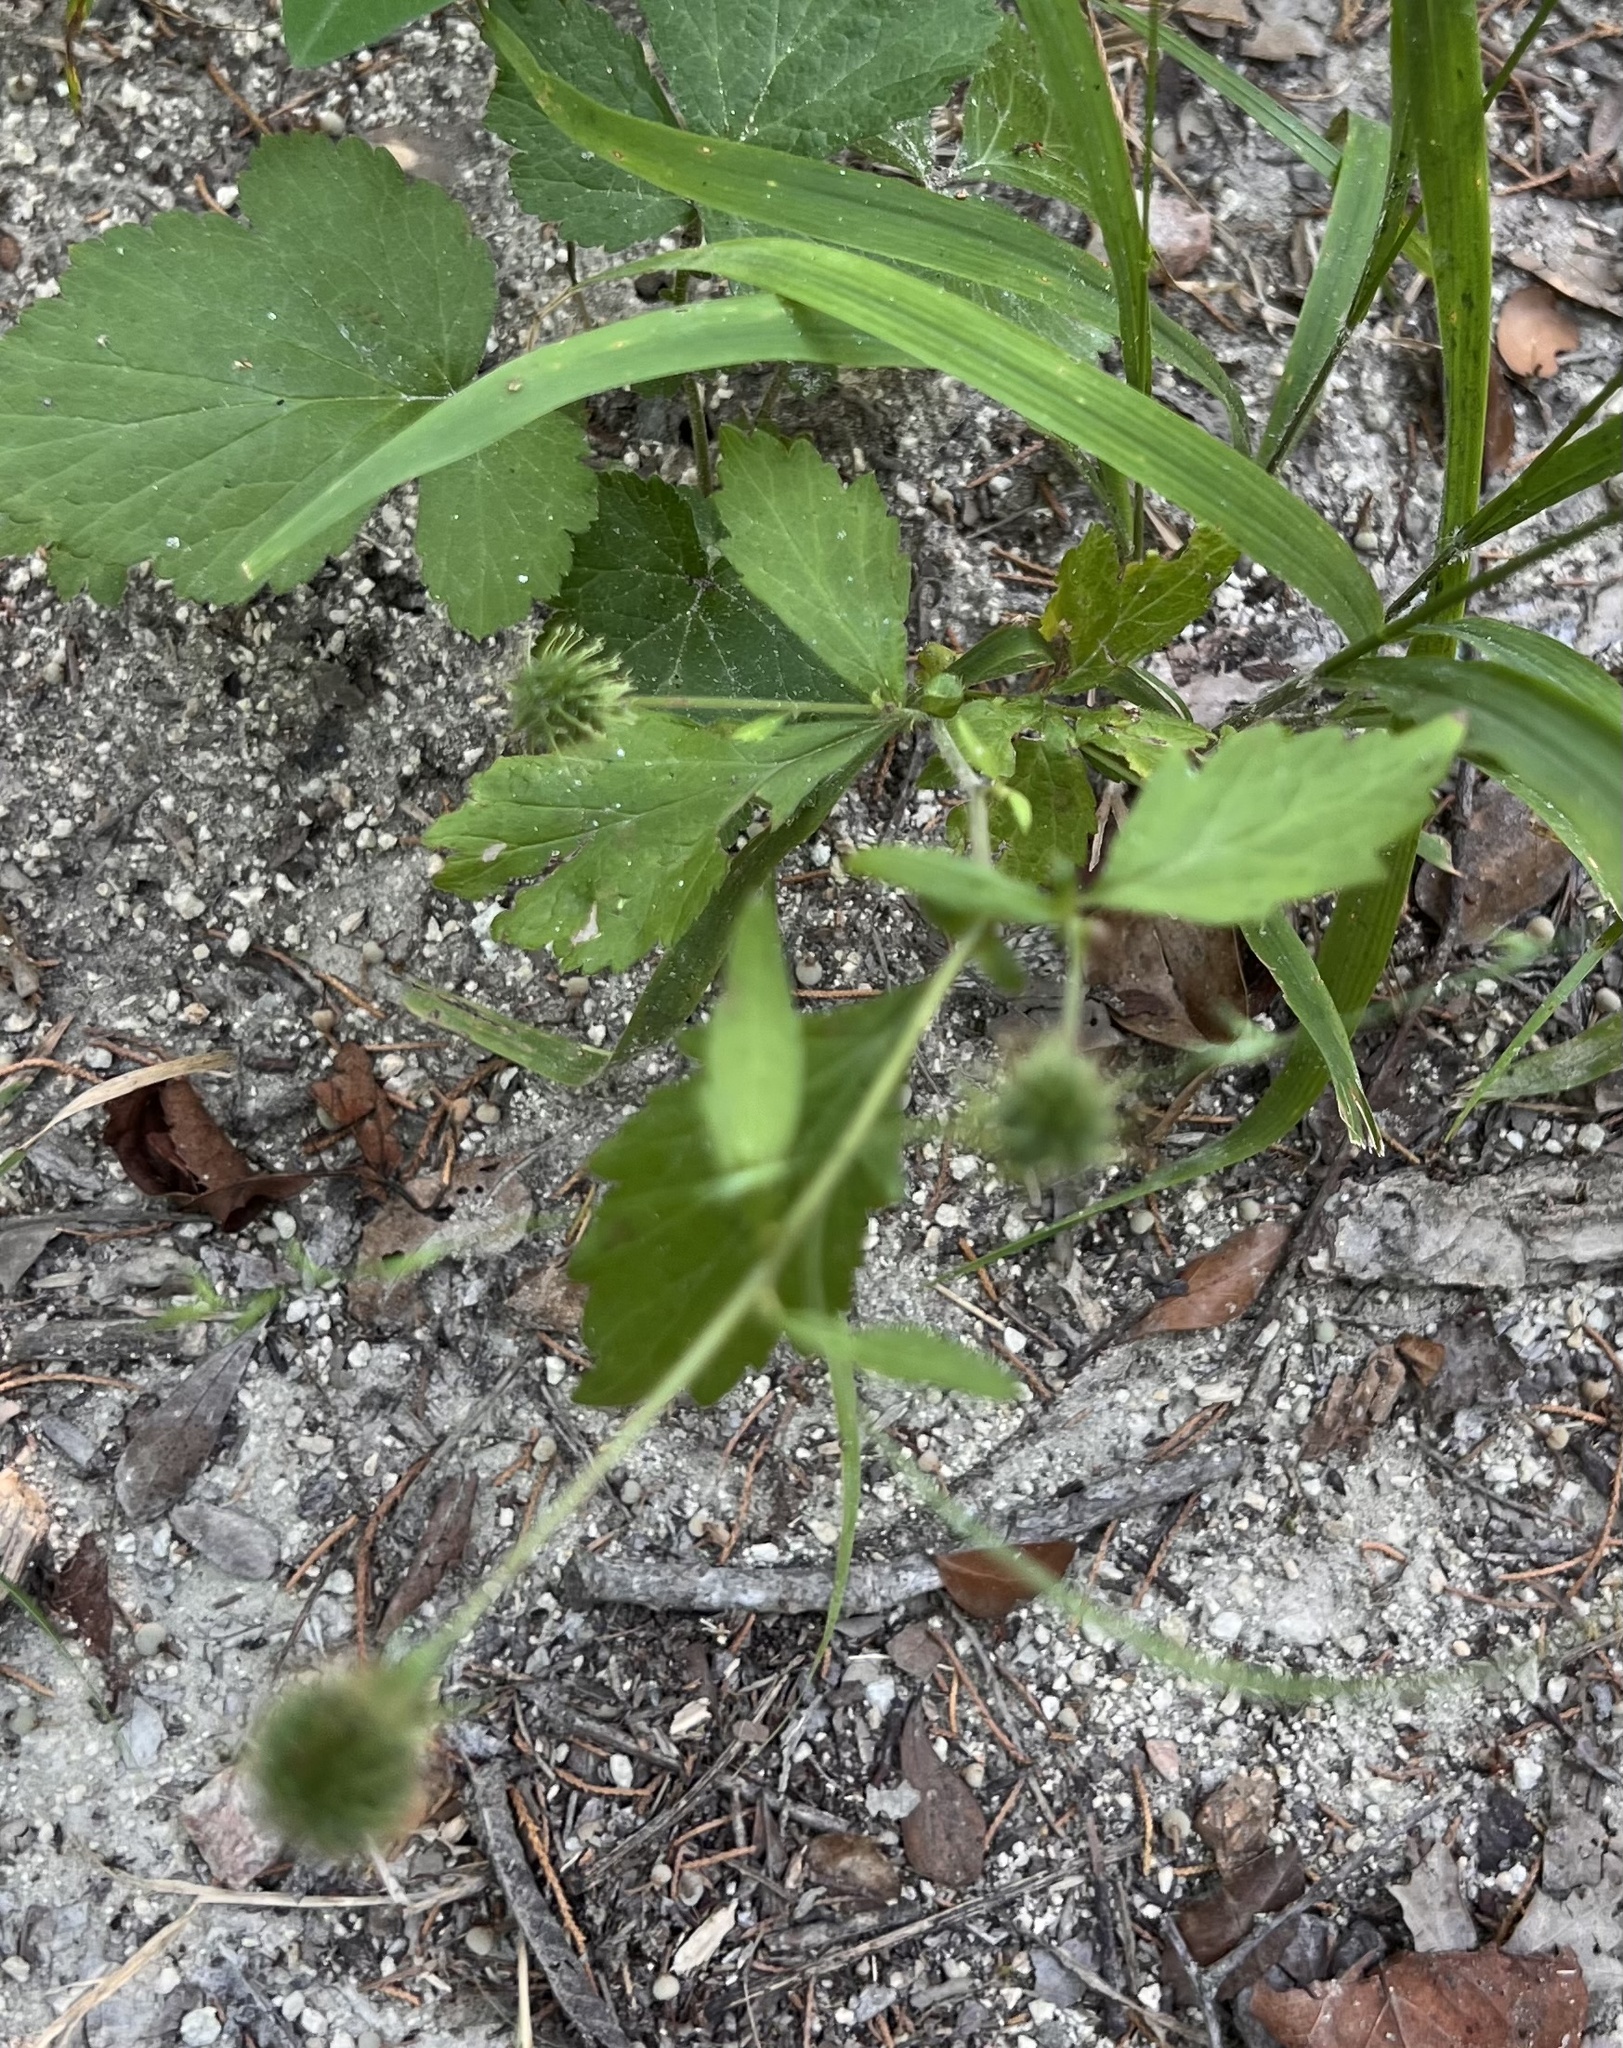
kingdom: Plantae
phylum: Tracheophyta
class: Magnoliopsida
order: Rosales
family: Rosaceae
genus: Geum
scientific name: Geum canadense
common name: White avens
